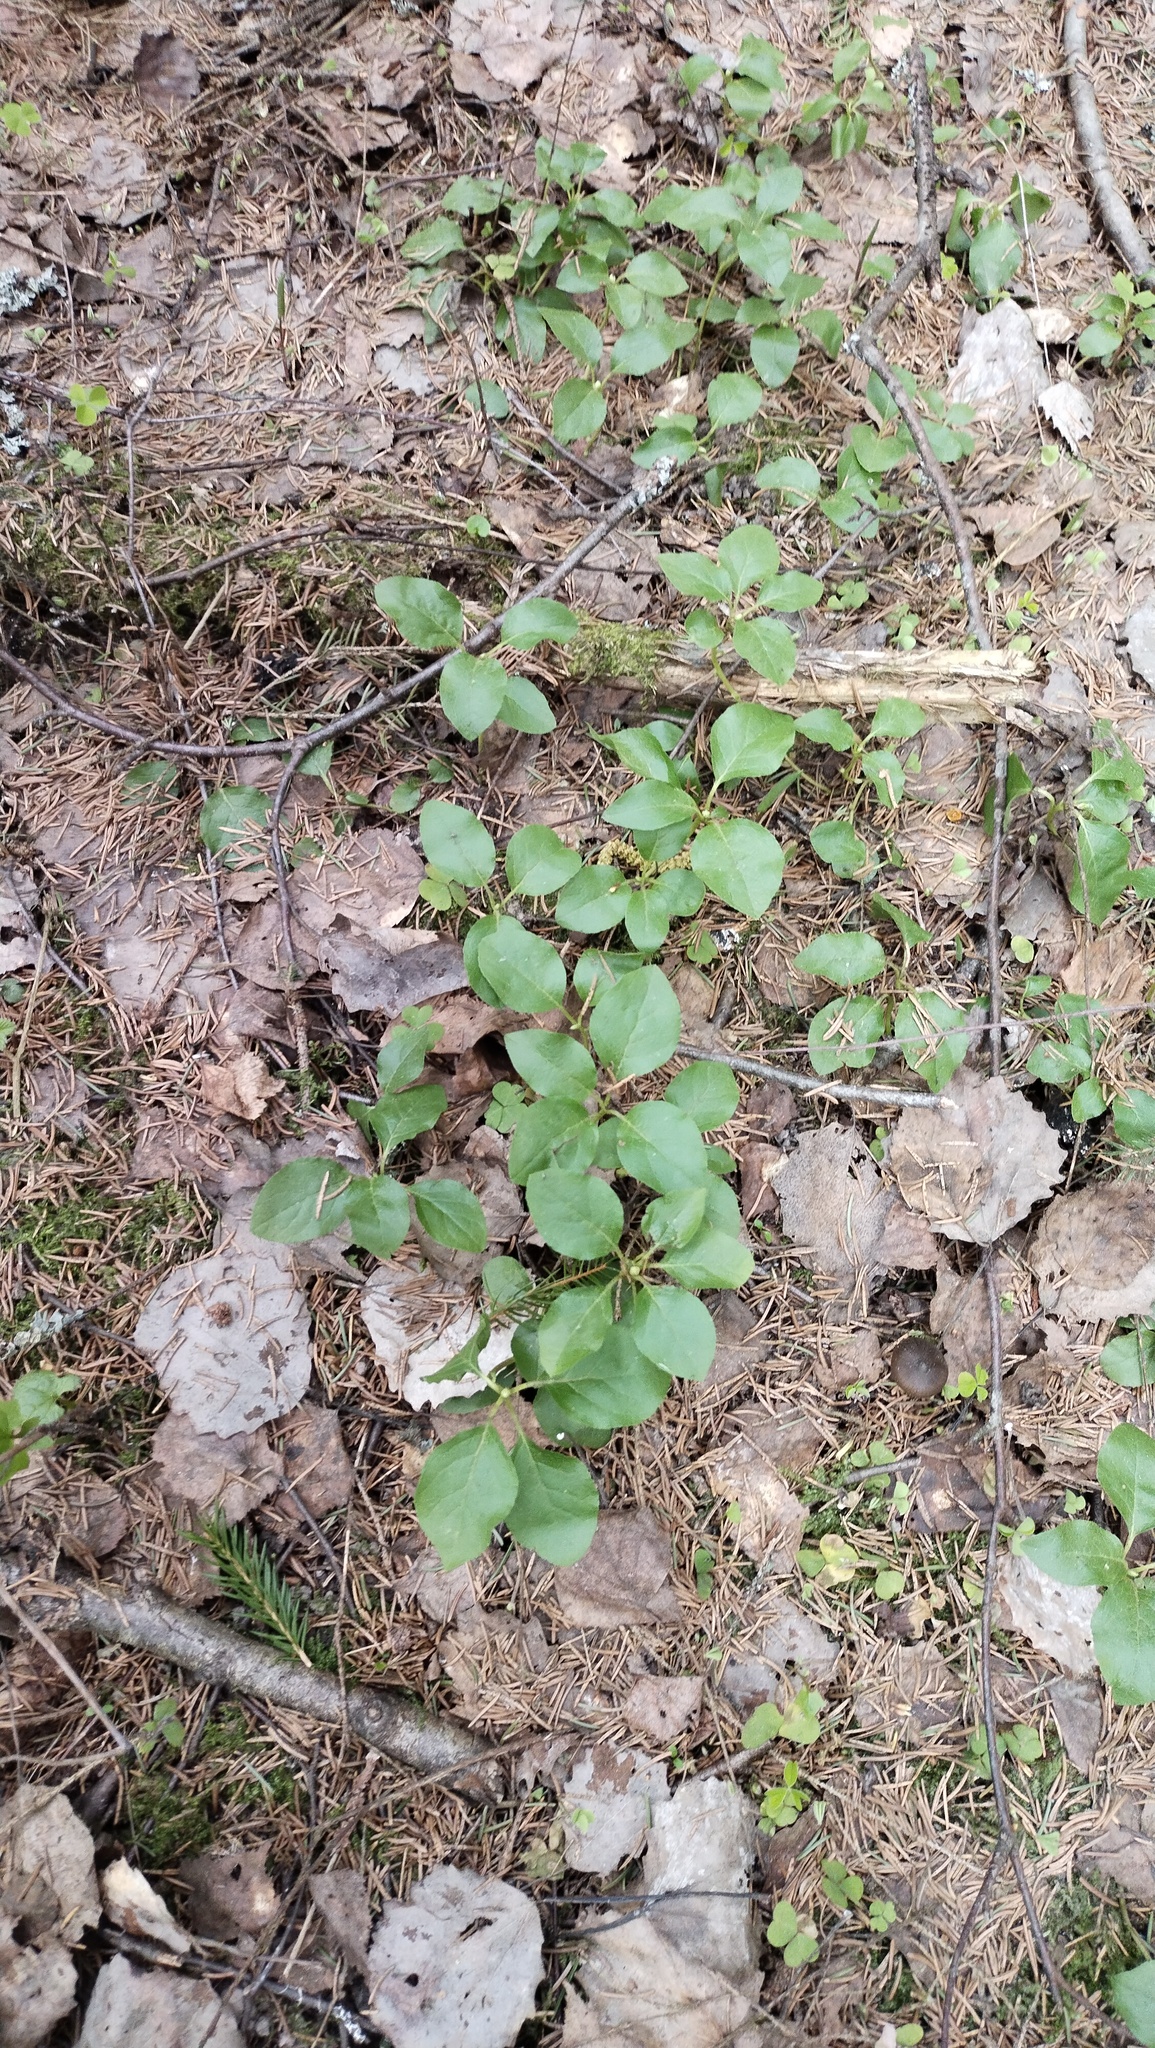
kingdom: Plantae
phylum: Tracheophyta
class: Magnoliopsida
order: Ericales
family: Ericaceae
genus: Orthilia
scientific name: Orthilia secunda
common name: One-sided orthilia
